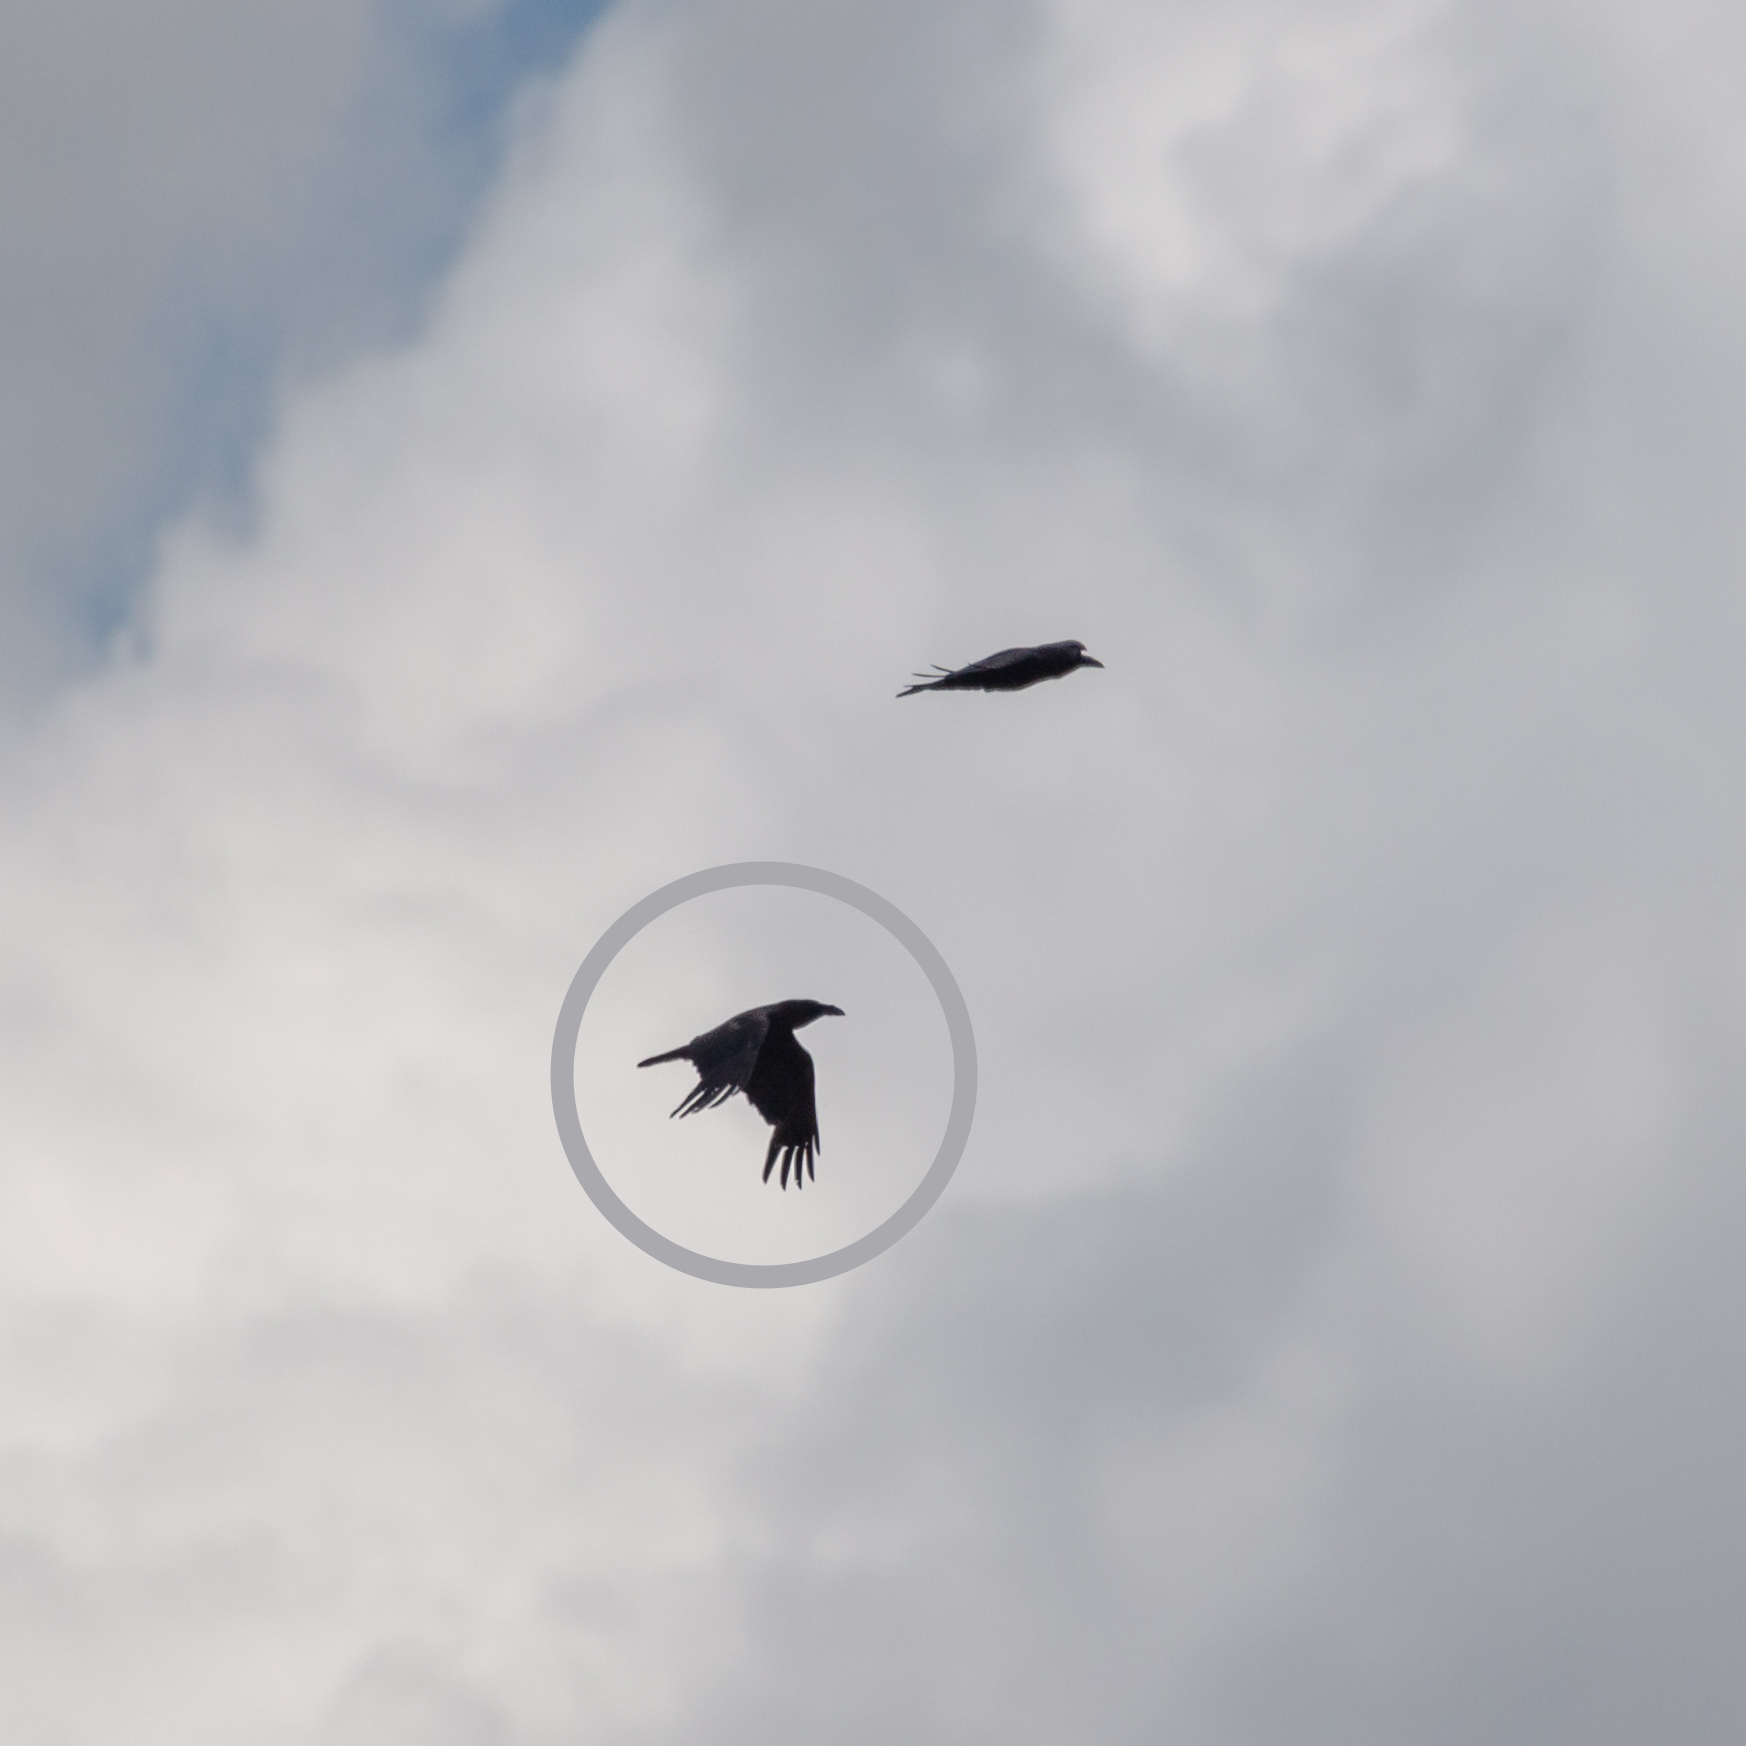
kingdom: Animalia
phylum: Chordata
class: Aves
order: Passeriformes
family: Corvidae
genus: Corvus
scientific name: Corvus corax
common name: Common raven
